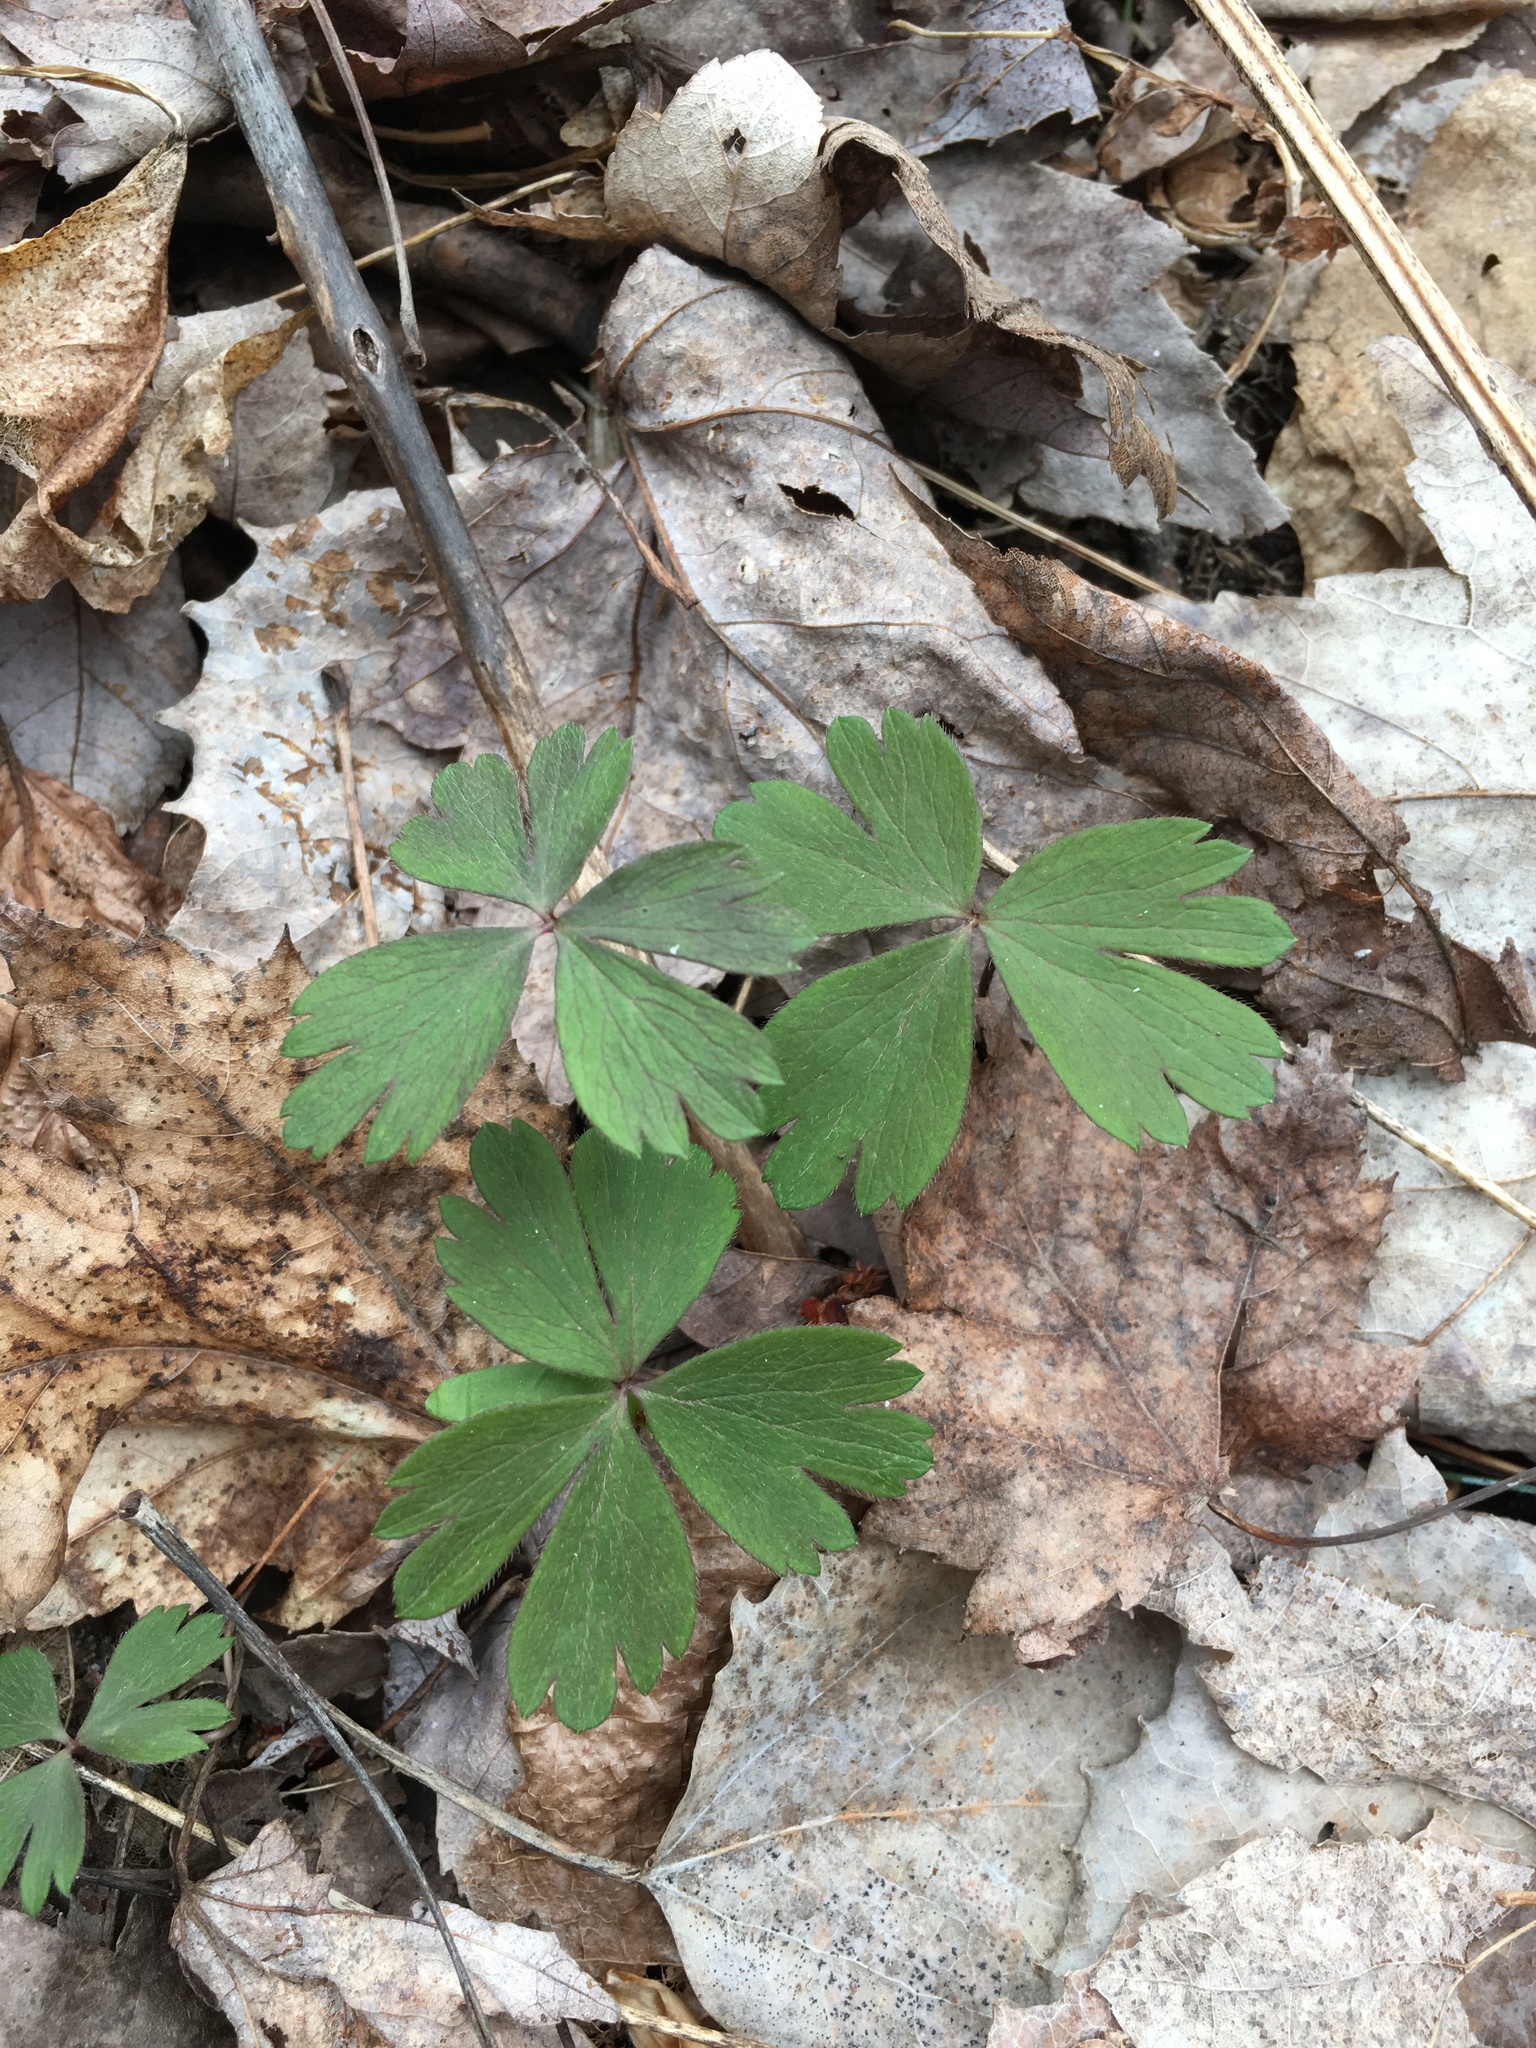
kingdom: Plantae
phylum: Tracheophyta
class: Magnoliopsida
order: Ranunculales
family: Ranunculaceae
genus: Anemone
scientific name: Anemone quinquefolia
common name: Wood anemone
